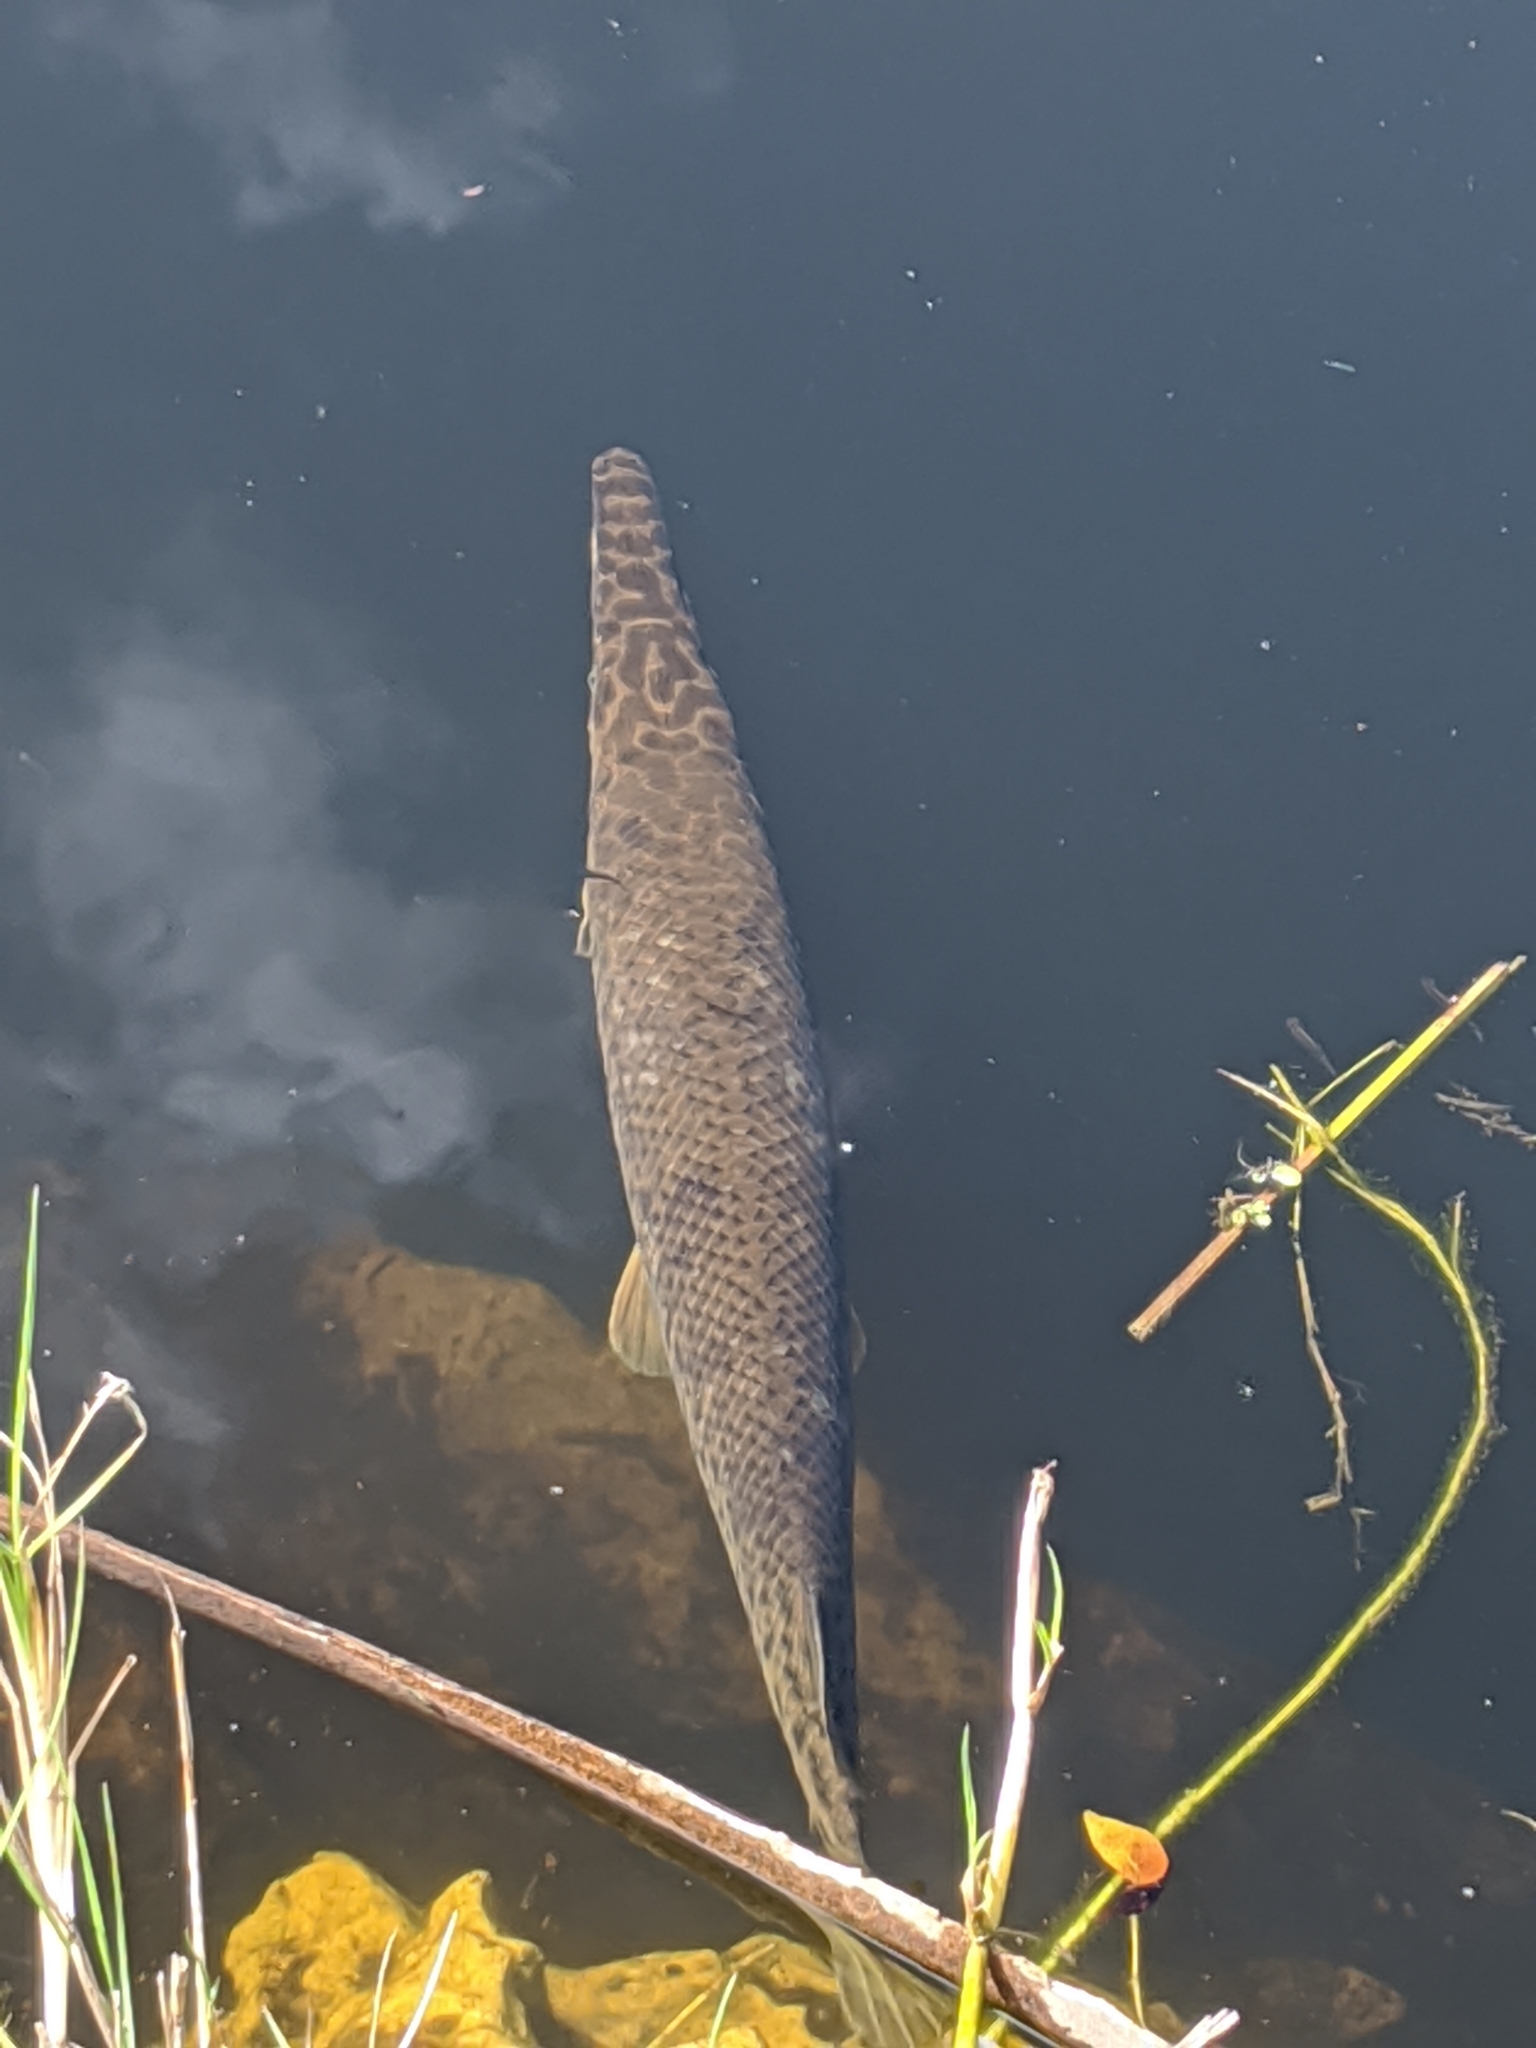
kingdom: Animalia
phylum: Chordata
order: Lepisosteiformes
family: Lepisosteidae
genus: Lepisosteus
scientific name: Lepisosteus platyrhincus
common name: Florida gar
